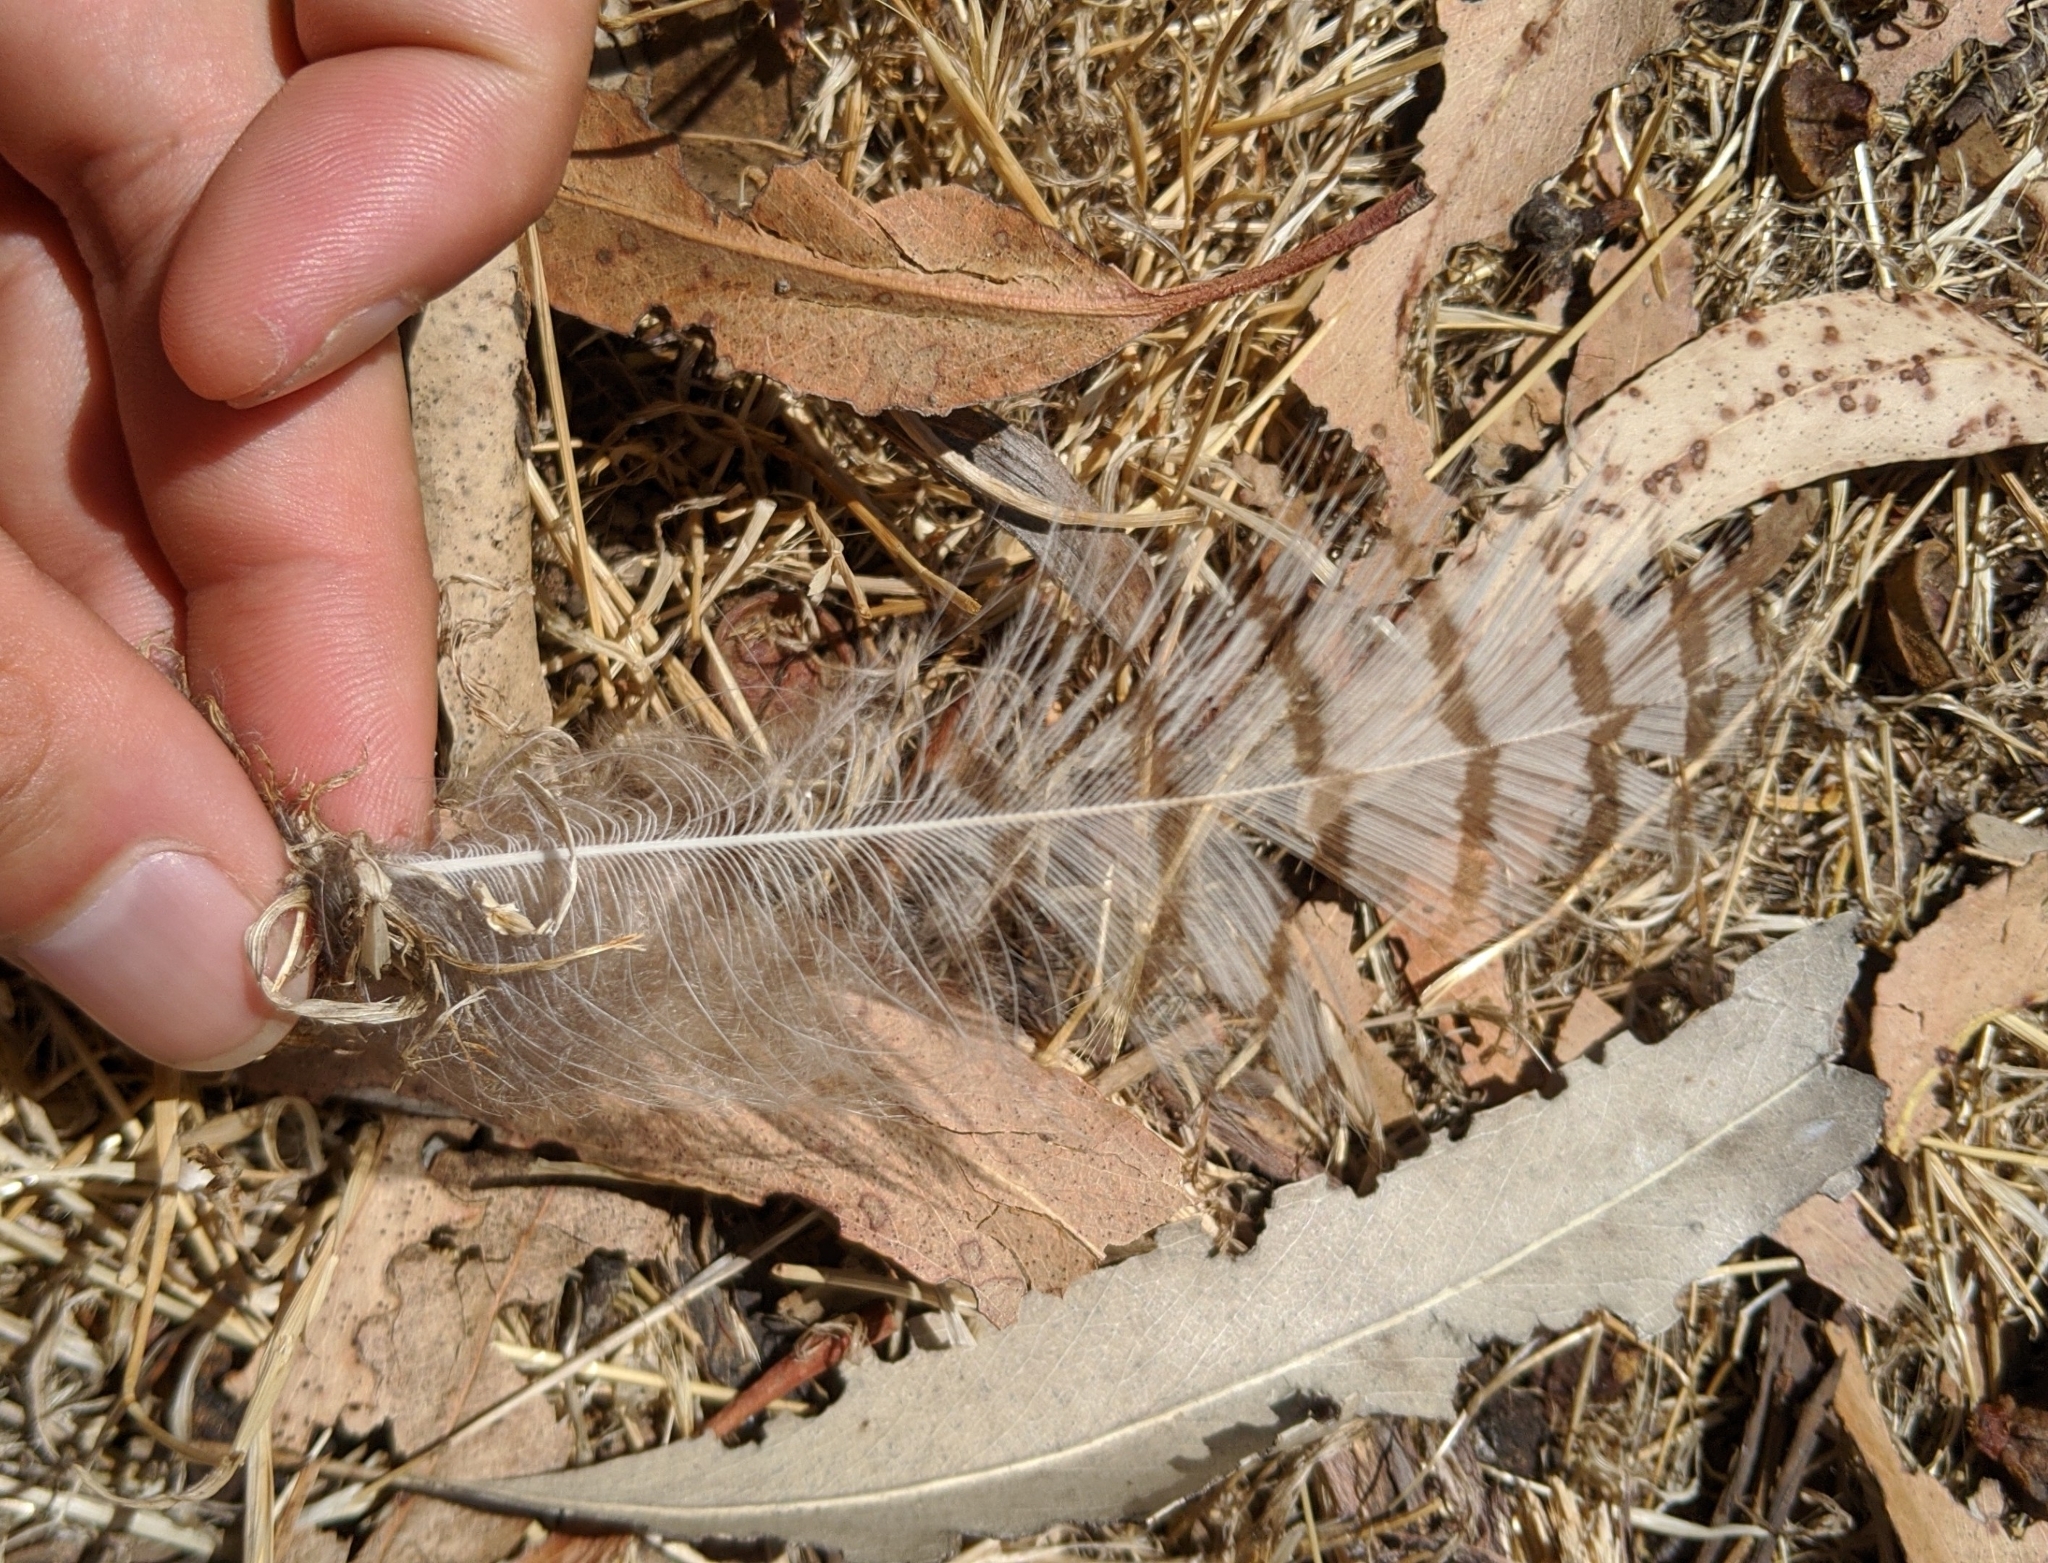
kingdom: Animalia
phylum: Chordata
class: Aves
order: Strigiformes
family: Strigidae
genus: Bubo
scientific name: Bubo virginianus
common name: Great horned owl
